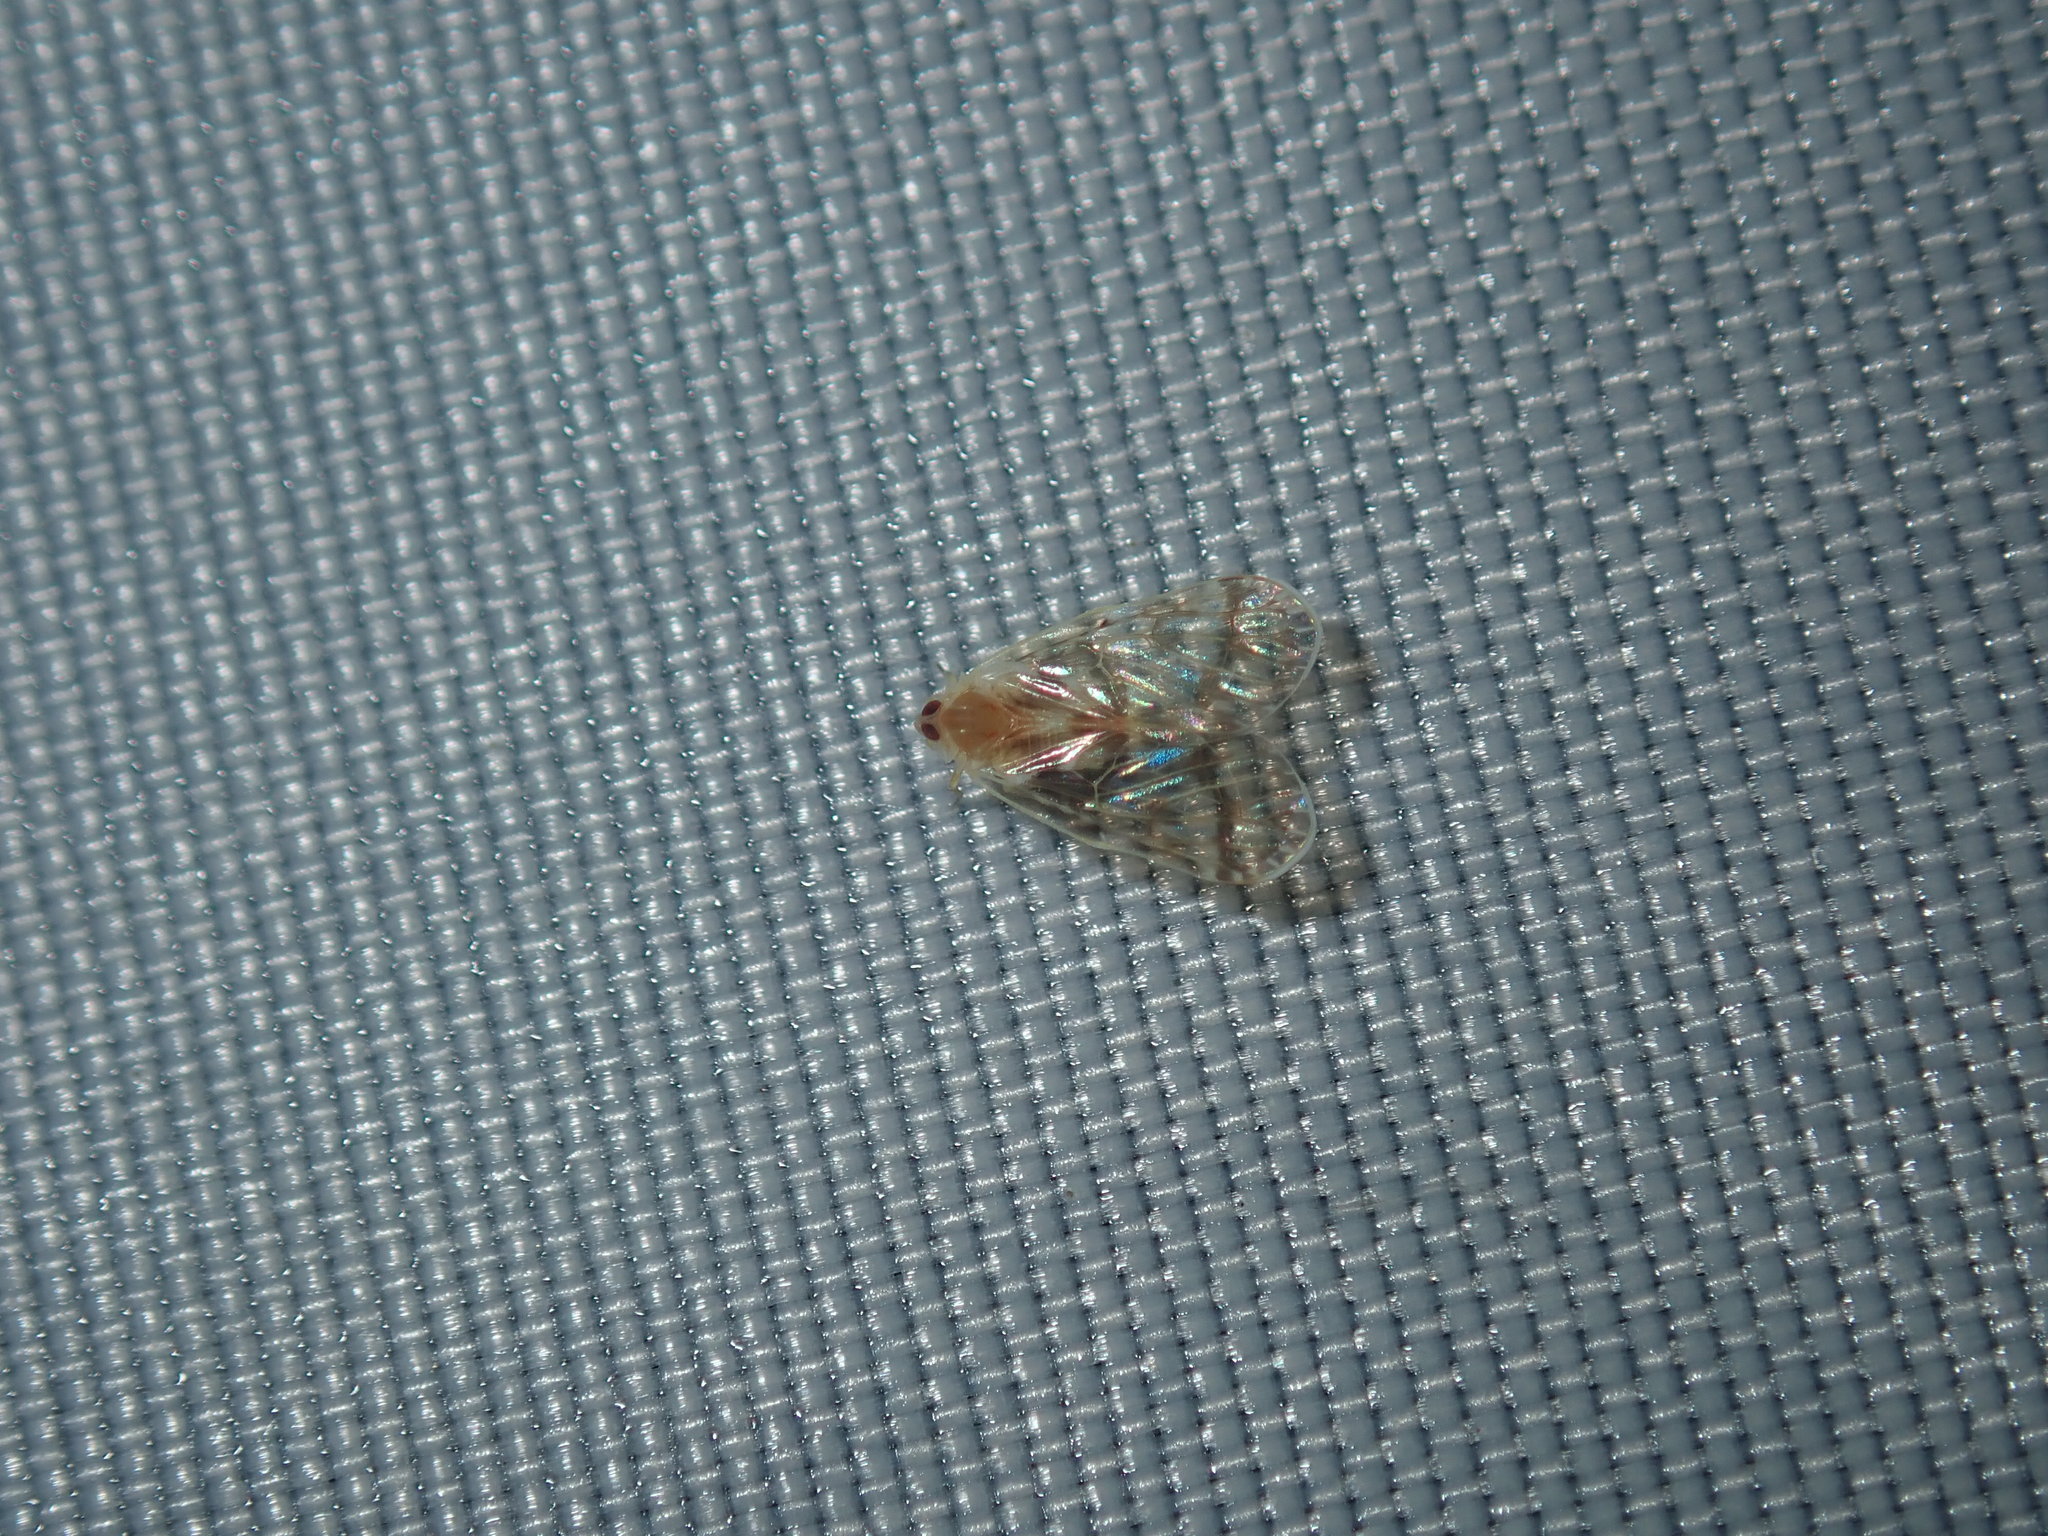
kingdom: Animalia
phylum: Arthropoda
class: Insecta
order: Hemiptera
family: Derbidae
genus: Saccharodite
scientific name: Saccharodite chrysonoe
